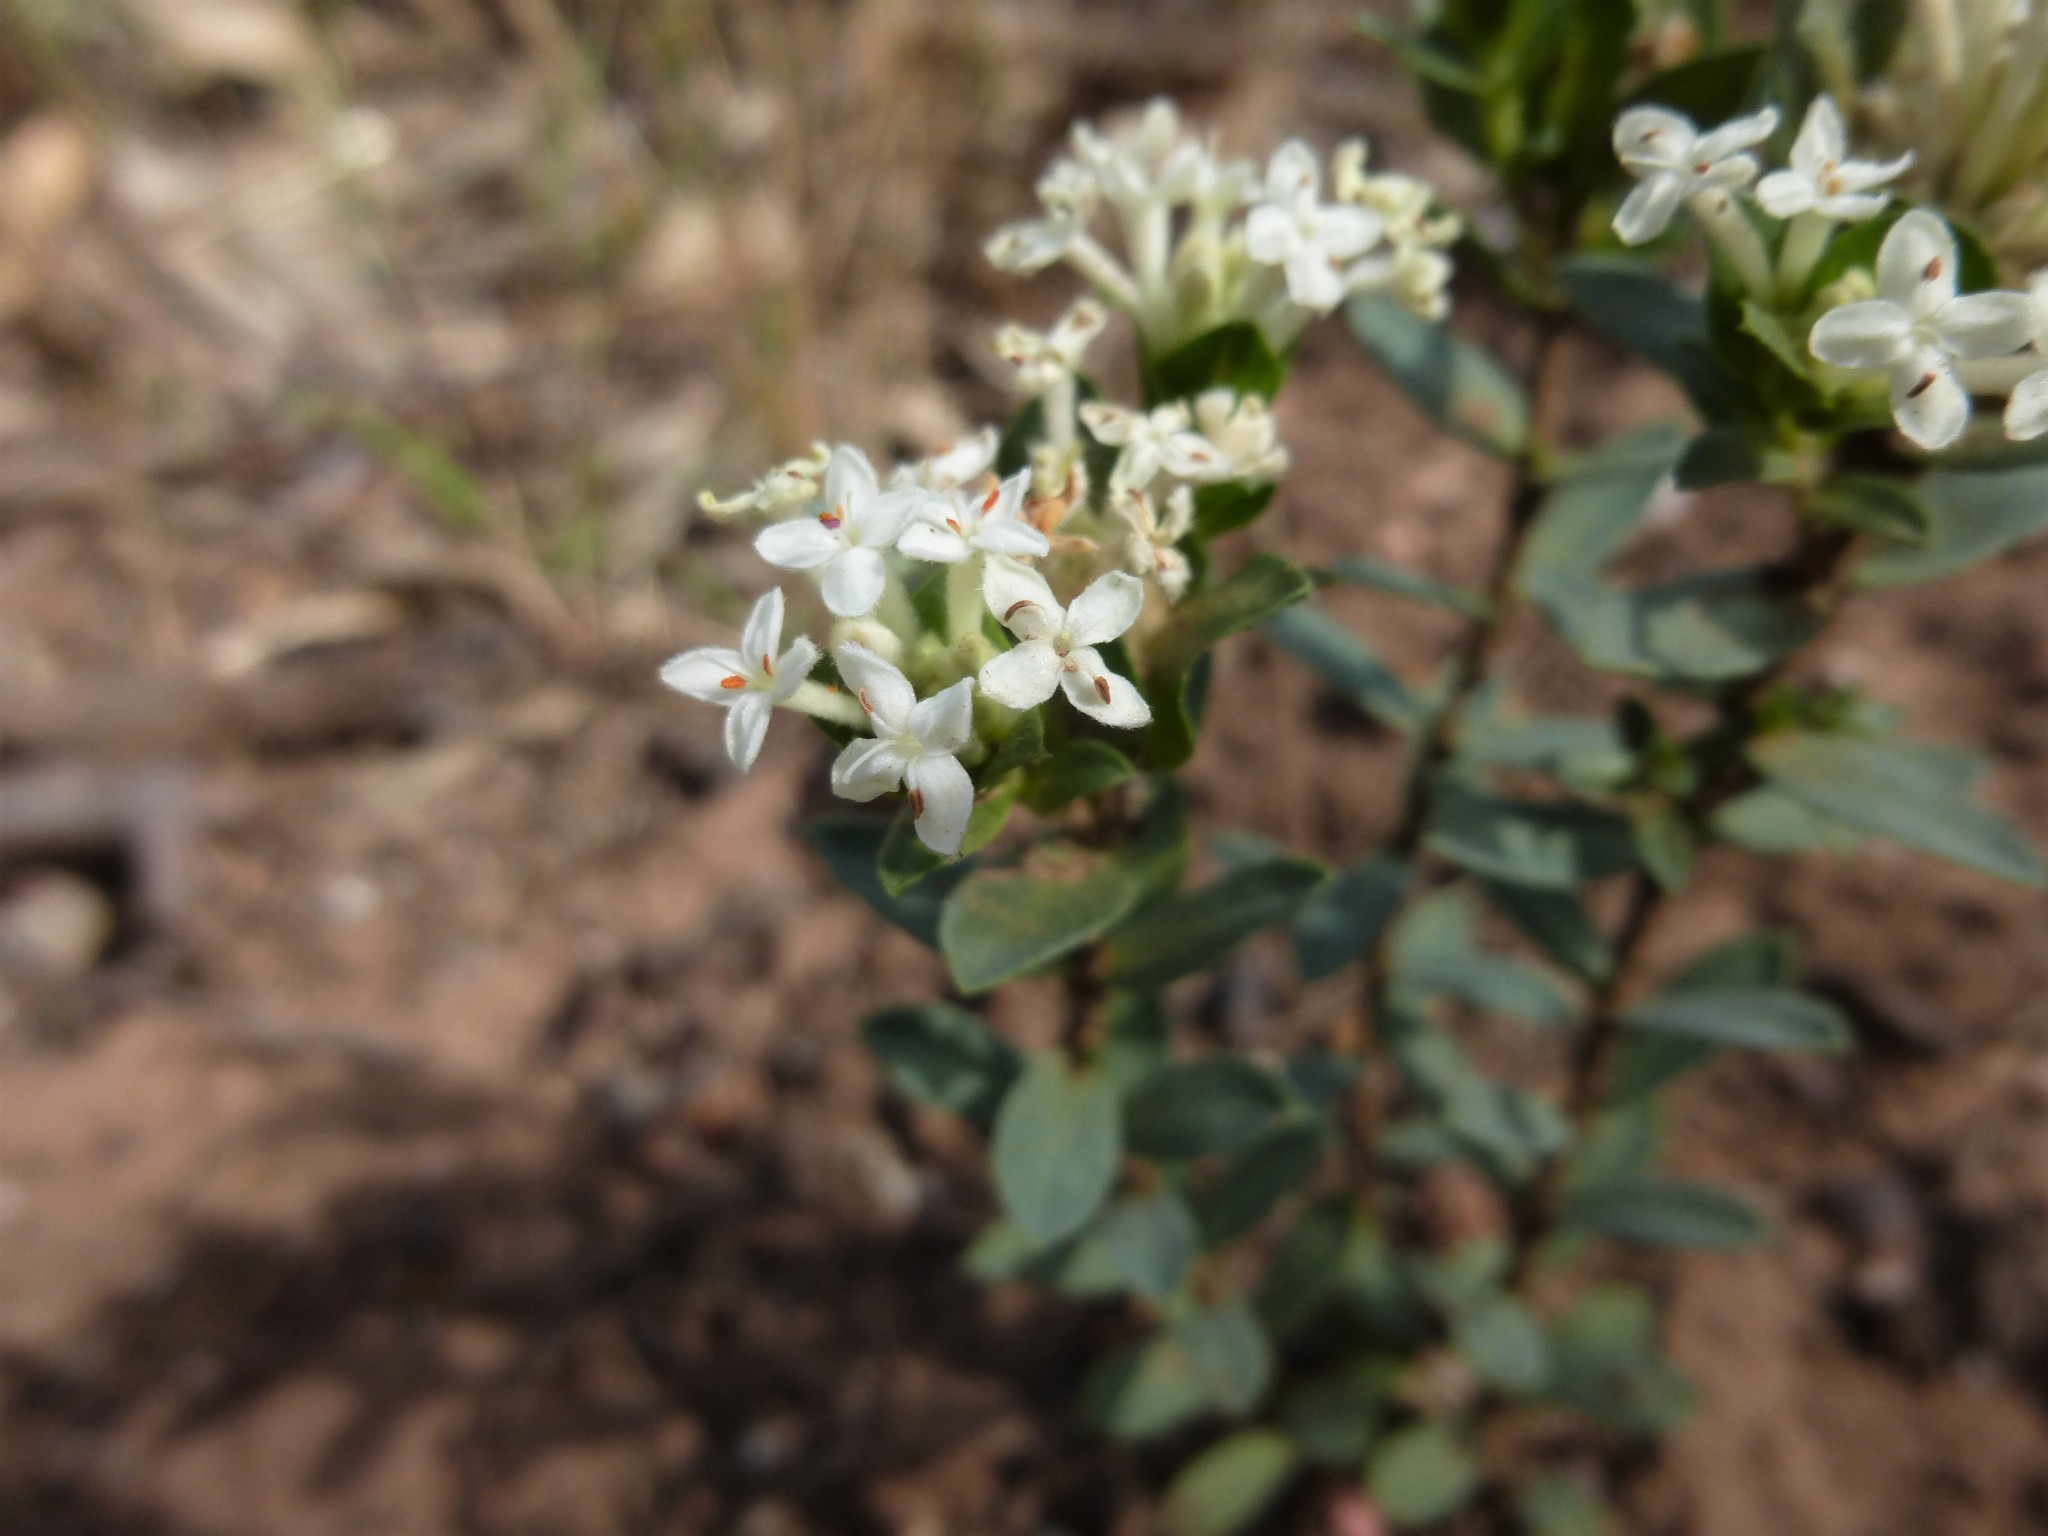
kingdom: Plantae
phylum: Tracheophyta
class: Magnoliopsida
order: Malvales
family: Thymelaeaceae
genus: Pimelea
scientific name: Pimelea humilis
